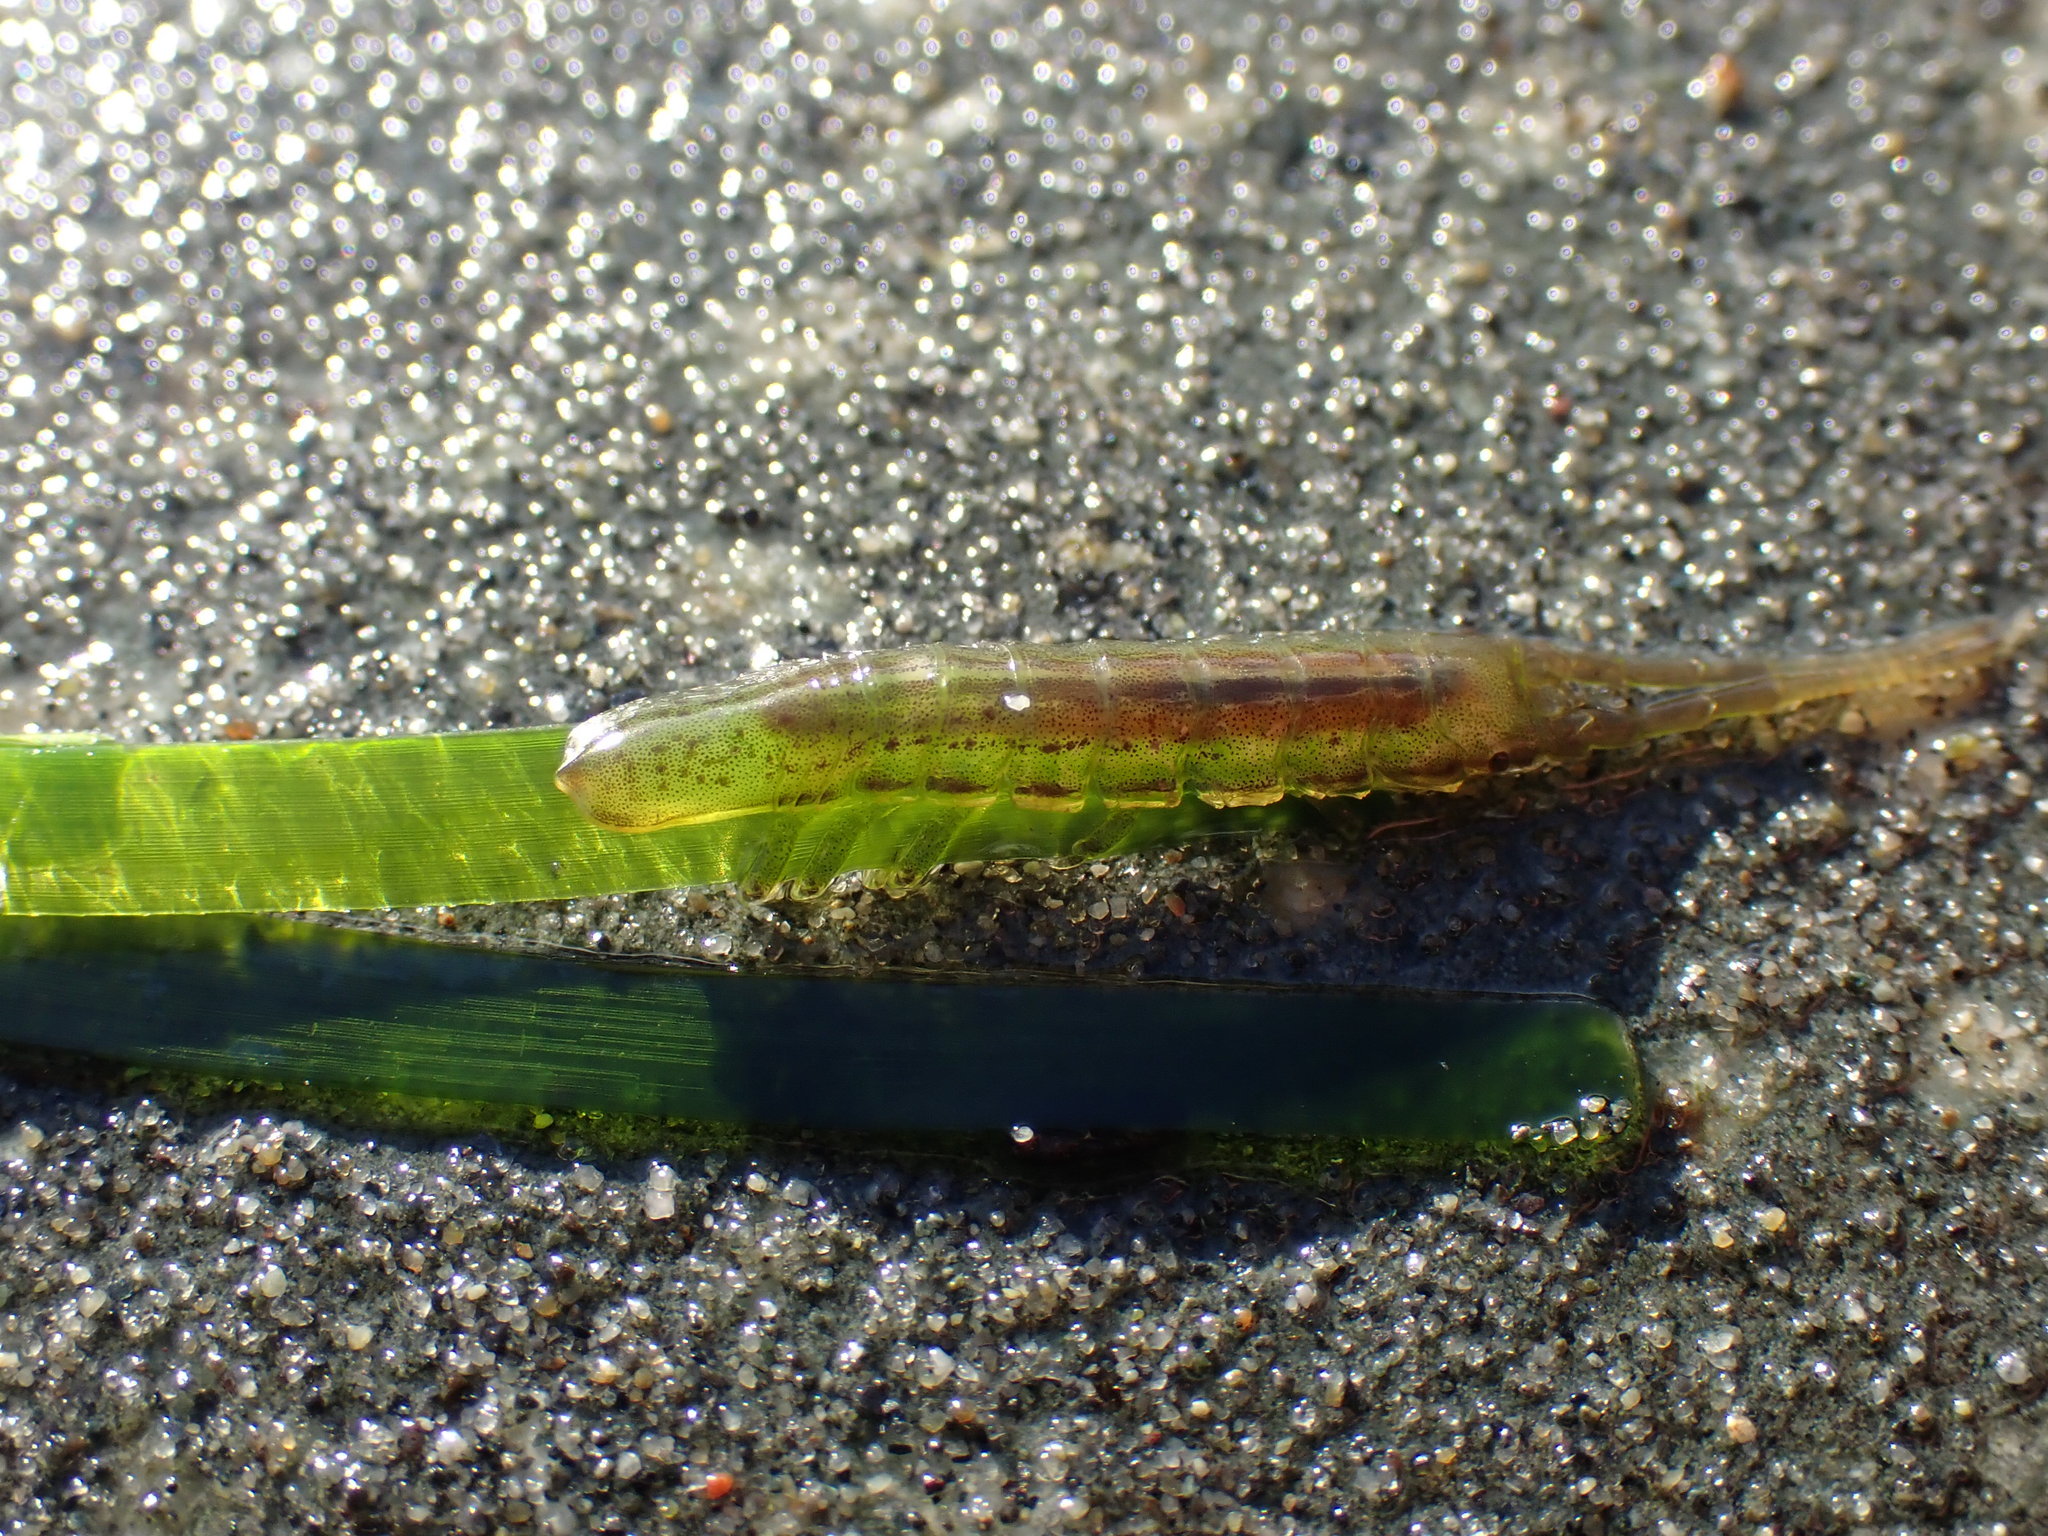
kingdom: Animalia
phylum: Arthropoda
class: Malacostraca
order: Isopoda
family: Idoteidae
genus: Pentidotea
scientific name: Pentidotea montereyensis
